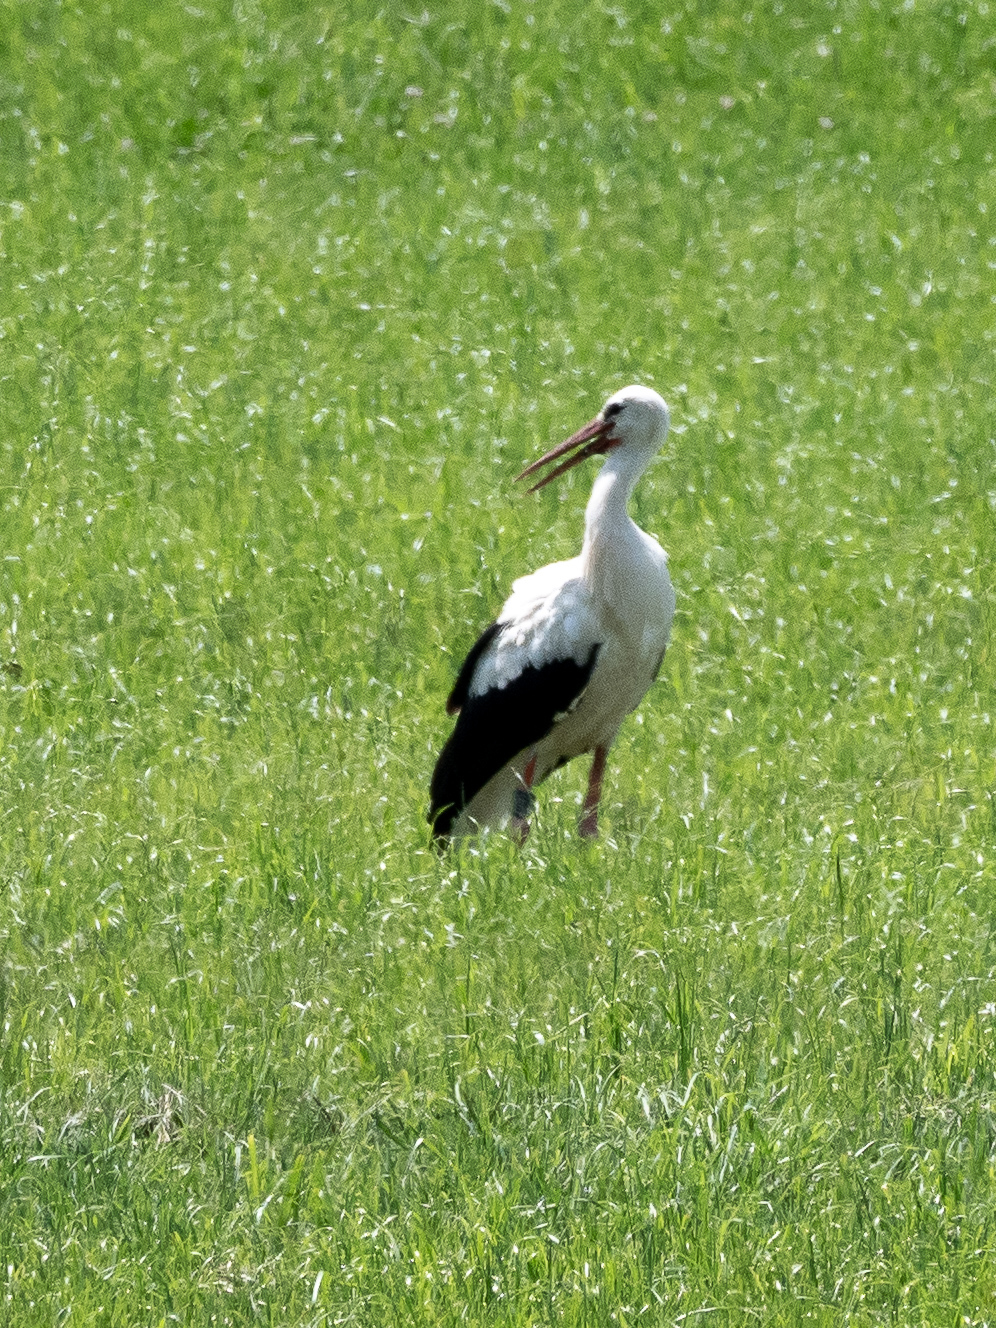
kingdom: Animalia
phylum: Chordata
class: Aves
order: Ciconiiformes
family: Ciconiidae
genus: Ciconia
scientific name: Ciconia ciconia
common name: White stork
